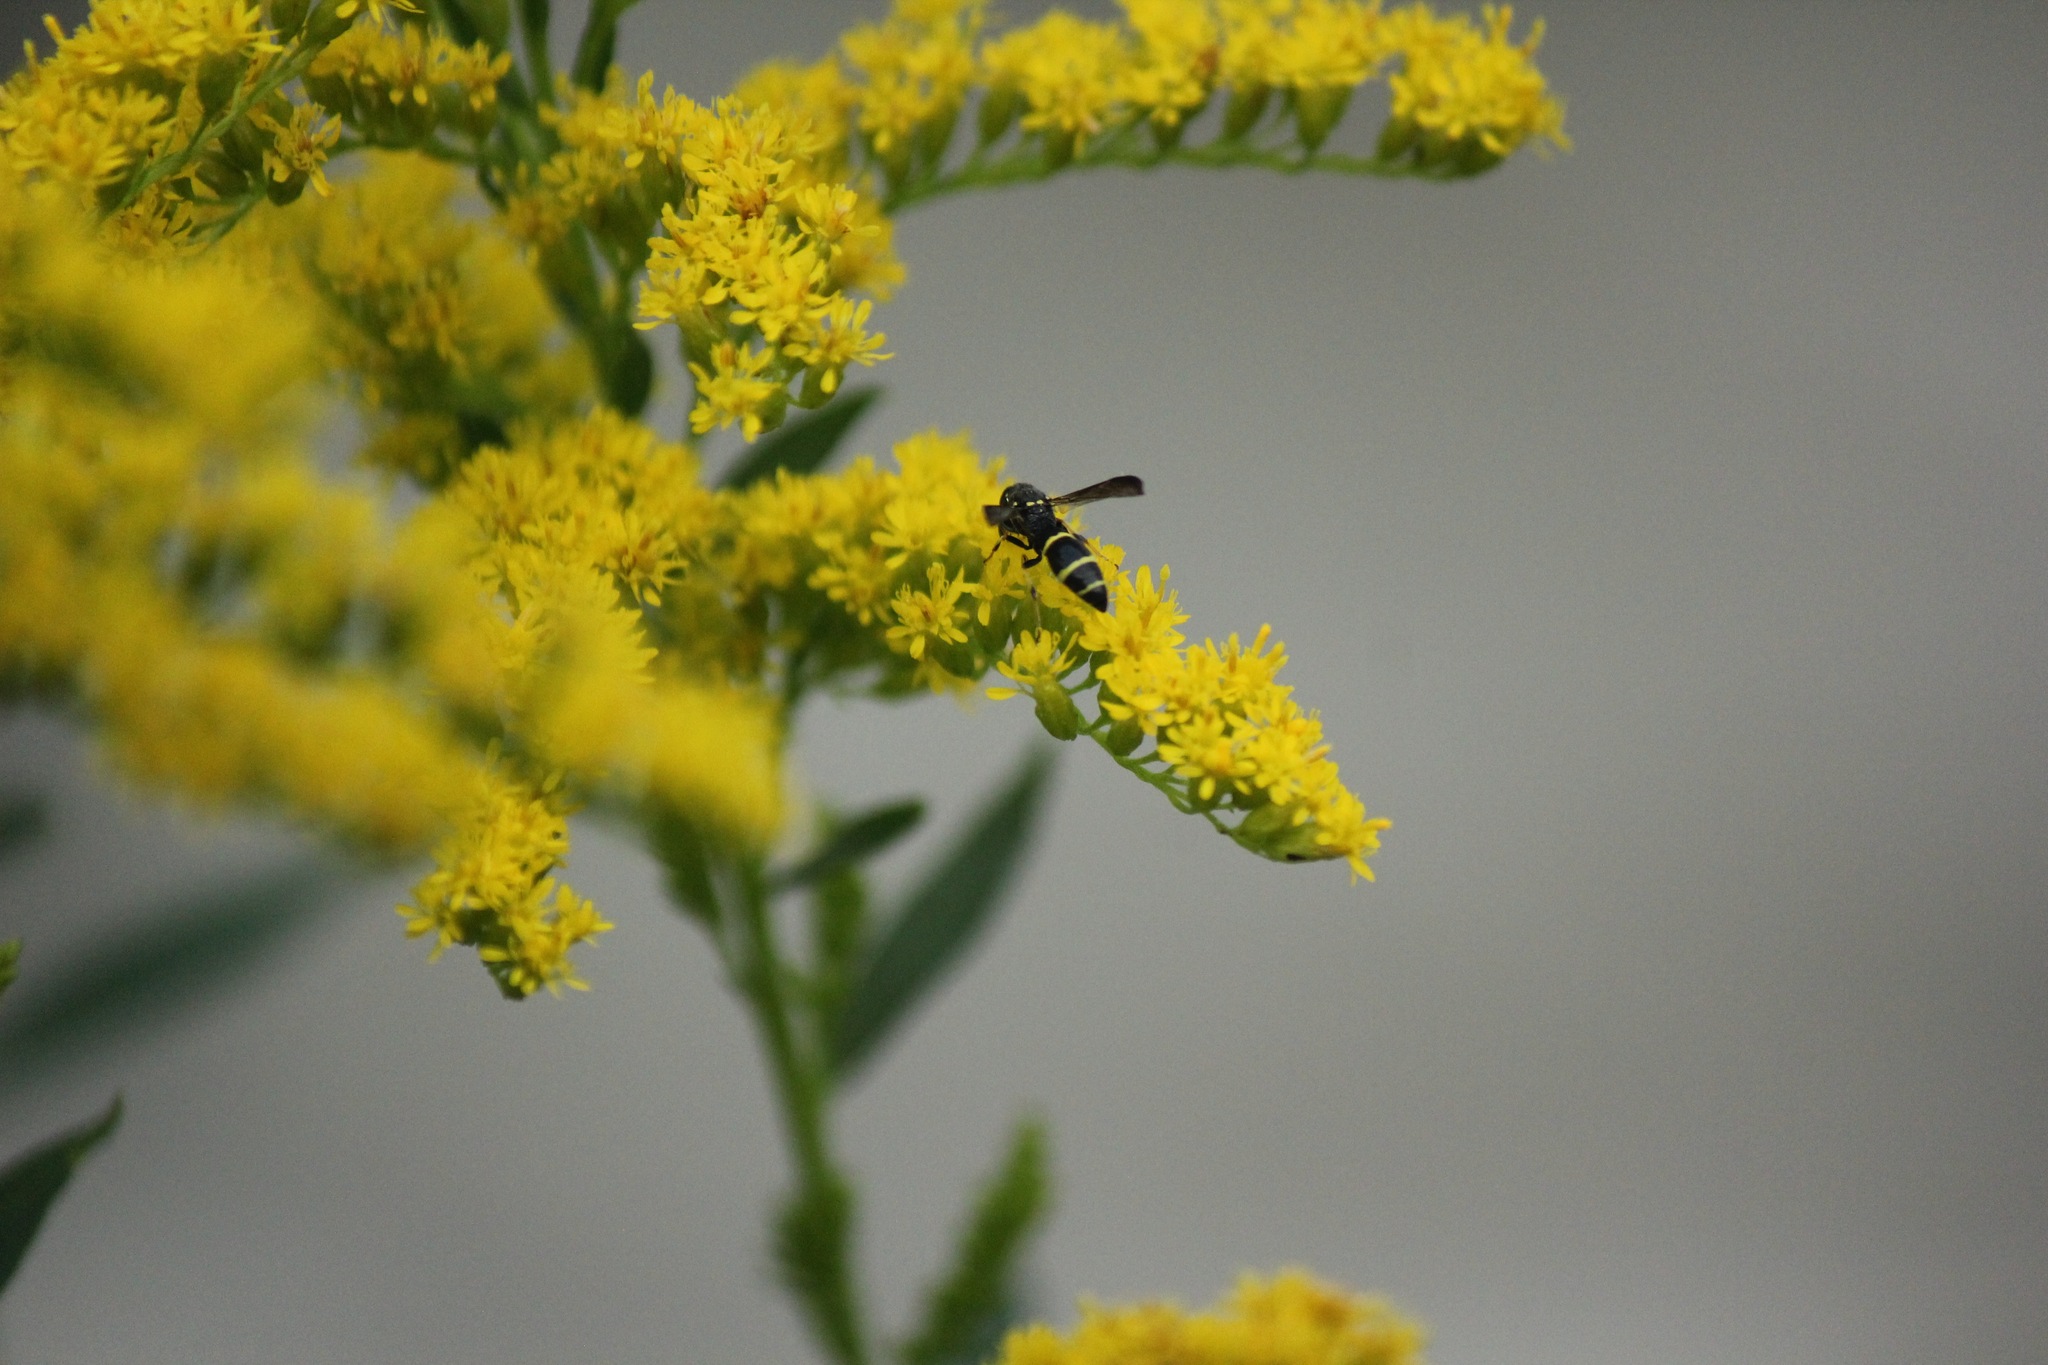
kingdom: Animalia
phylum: Arthropoda
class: Insecta
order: Hymenoptera
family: Eumenidae
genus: Symmorphus
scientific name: Symmorphus
